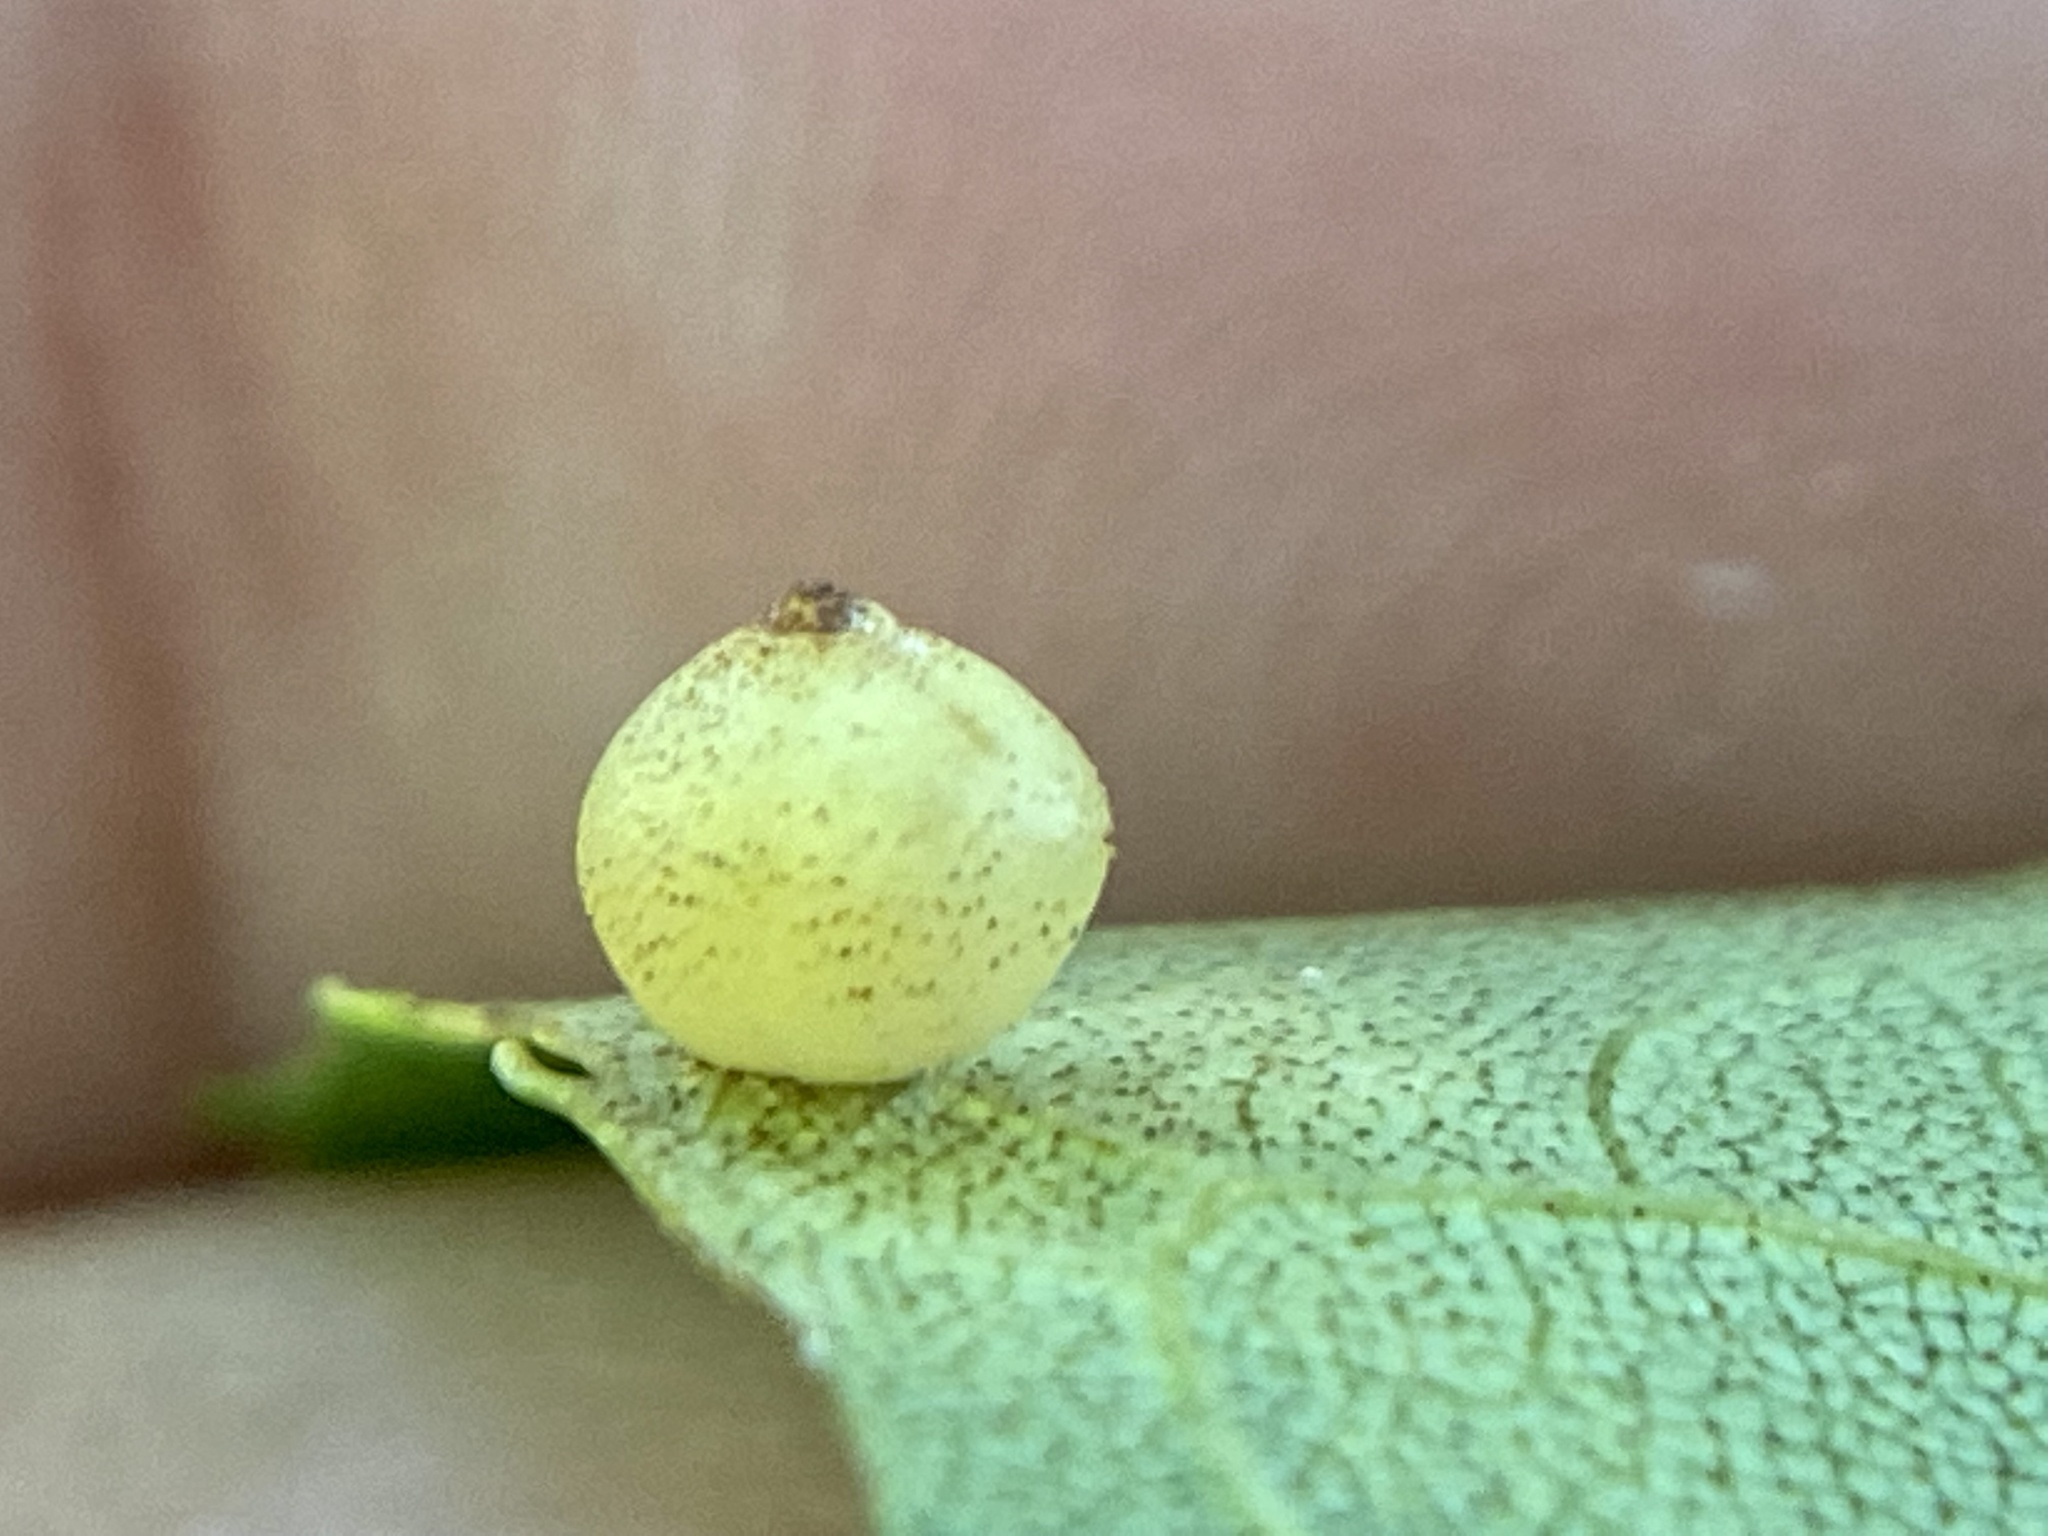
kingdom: Animalia
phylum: Arthropoda
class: Insecta
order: Diptera
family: Cecidomyiidae
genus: Caryomyia
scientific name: Caryomyia caryae
